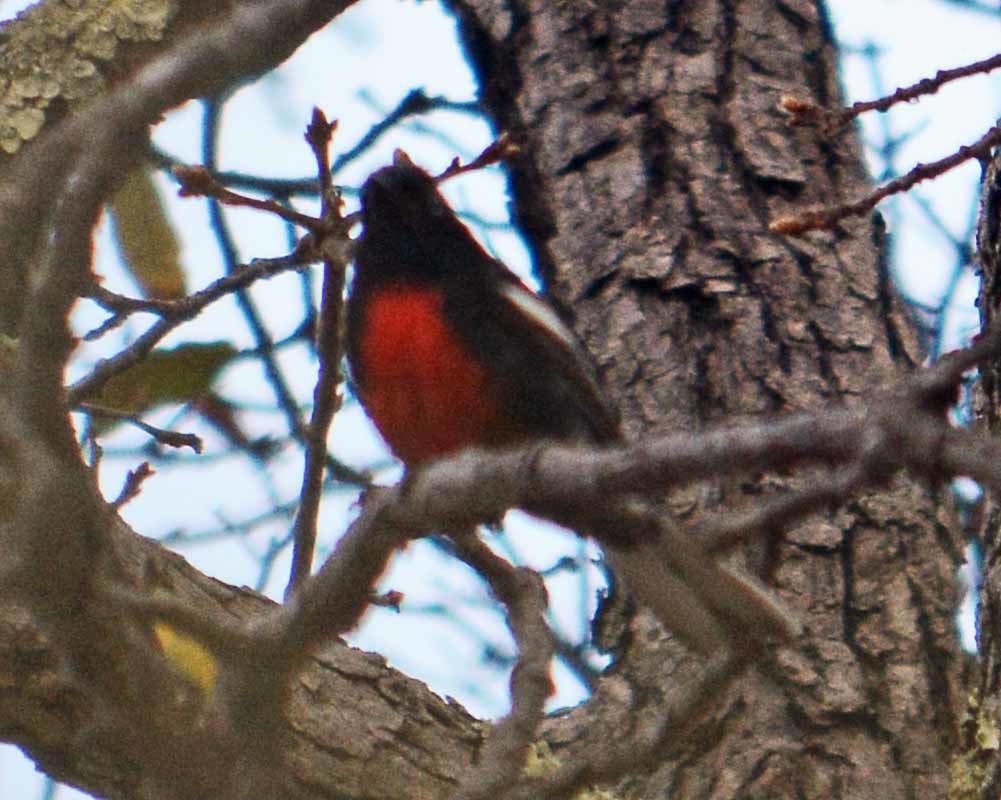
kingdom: Animalia
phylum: Chordata
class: Aves
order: Passeriformes
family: Parulidae
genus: Myioborus
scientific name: Myioborus pictus
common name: Painted whitestart
